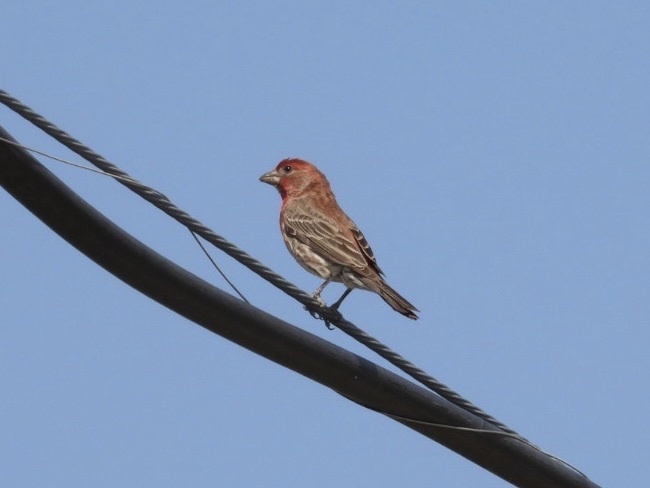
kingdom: Animalia
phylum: Chordata
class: Aves
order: Passeriformes
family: Fringillidae
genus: Haemorhous
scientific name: Haemorhous mexicanus
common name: House finch
